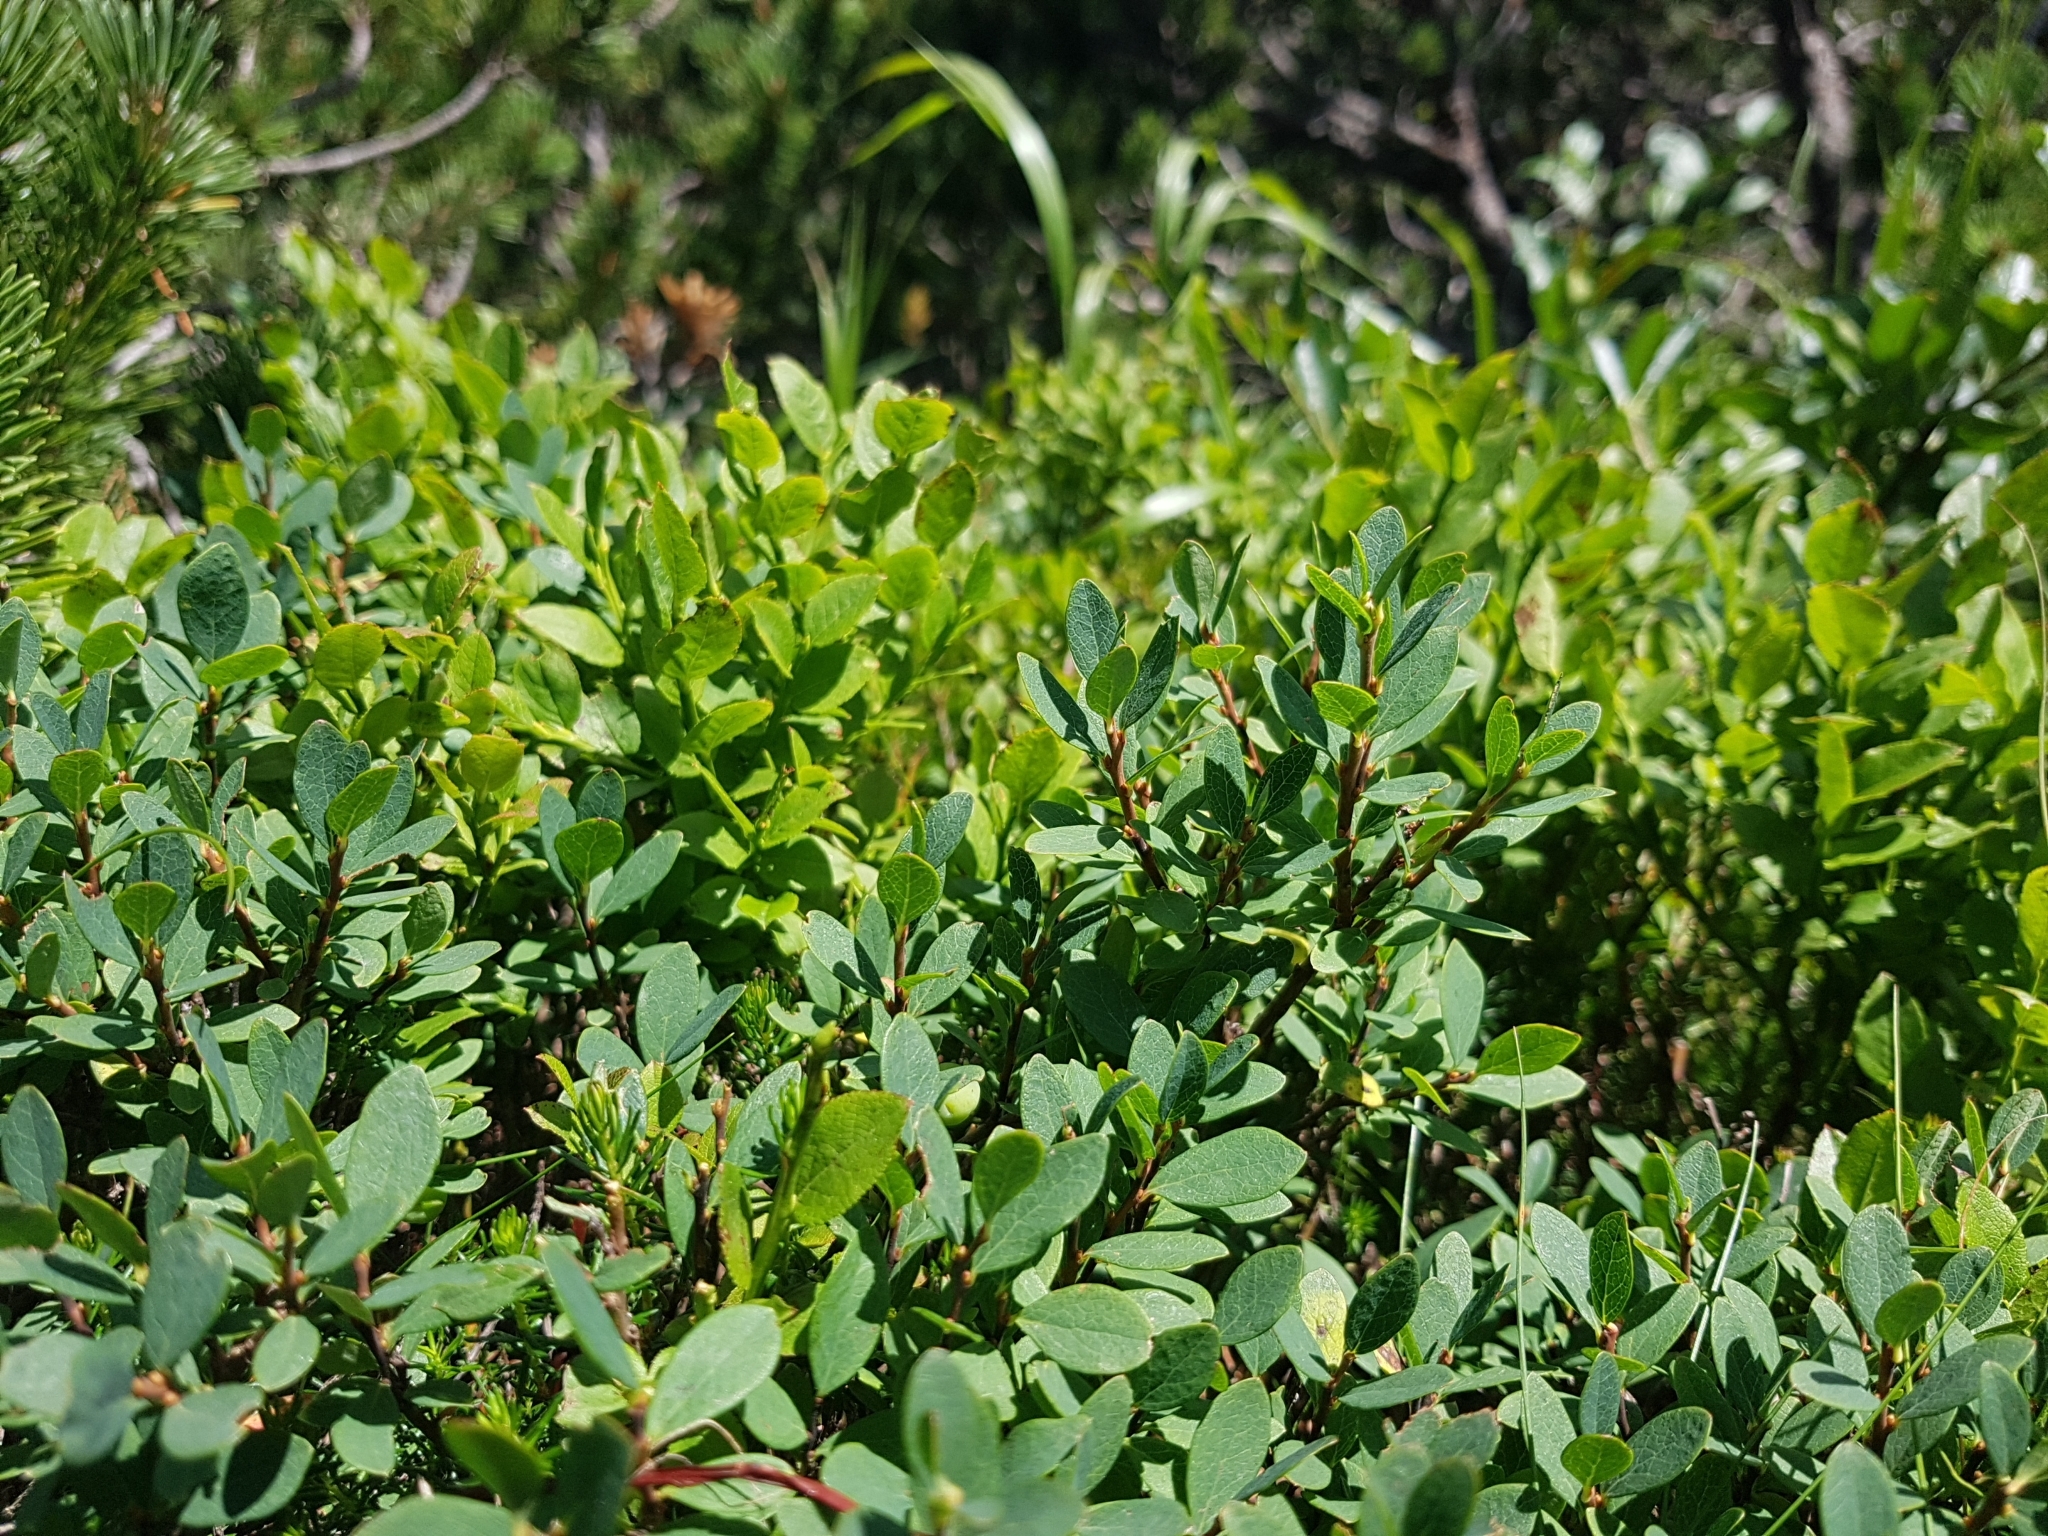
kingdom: Plantae
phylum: Tracheophyta
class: Magnoliopsida
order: Ericales
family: Ericaceae
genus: Vaccinium
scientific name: Vaccinium uliginosum
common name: Bog bilberry
